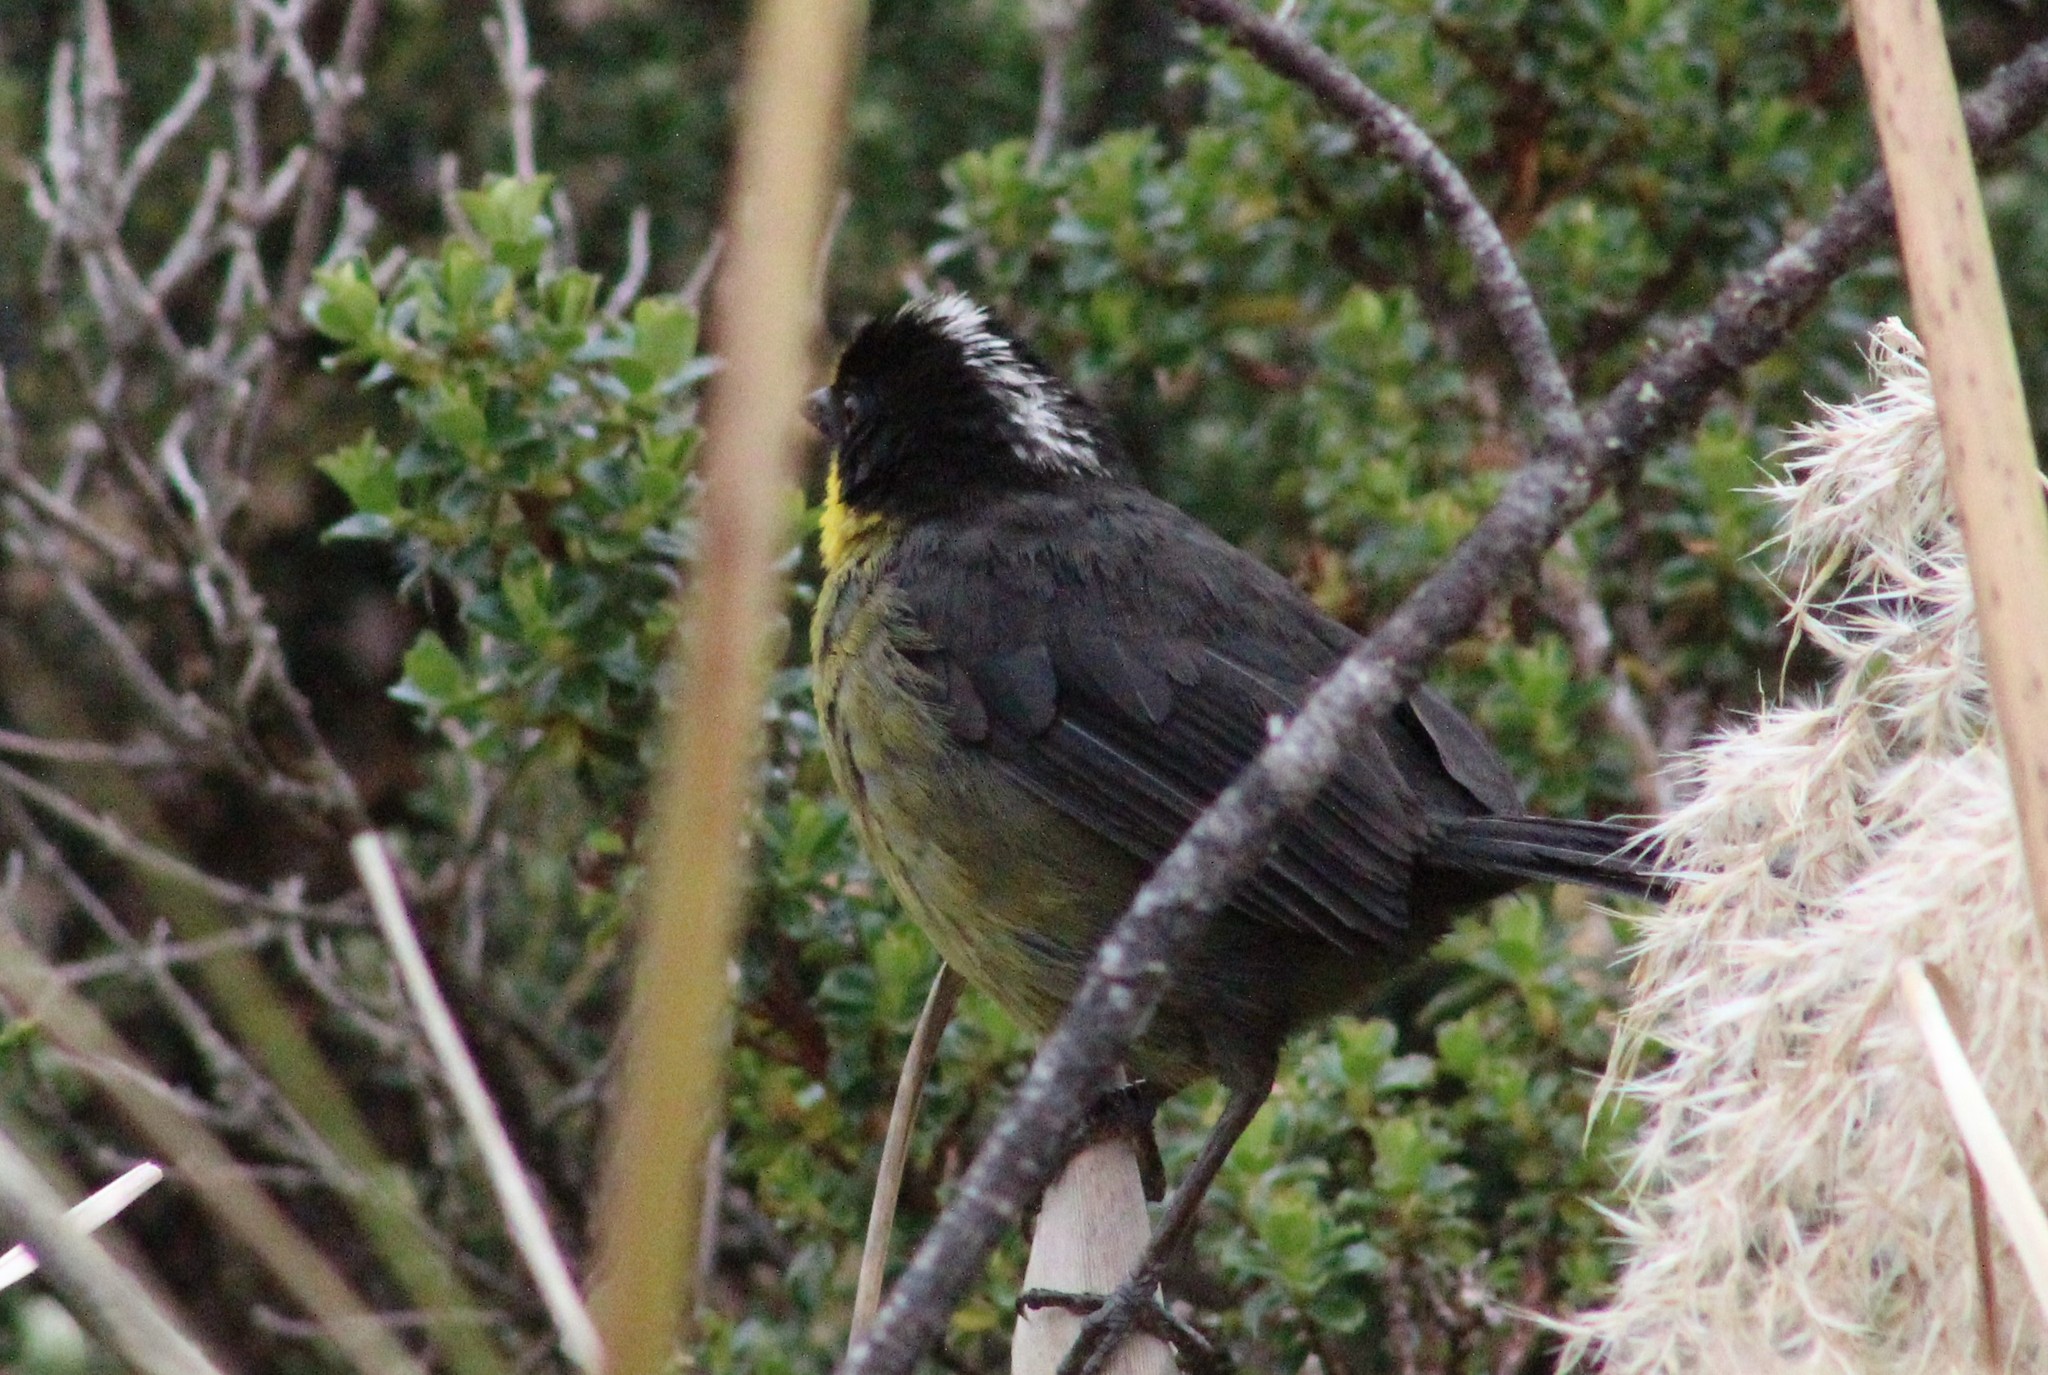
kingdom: Animalia
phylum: Chordata
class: Aves
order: Passeriformes
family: Passerellidae
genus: Atlapetes
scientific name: Atlapetes pallidinucha
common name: Pale-naped brushfinch
